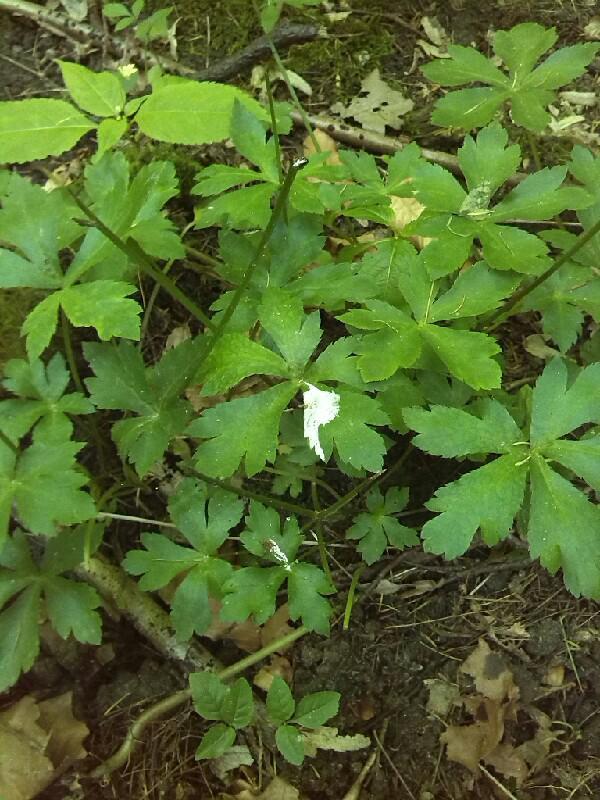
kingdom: Plantae
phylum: Tracheophyta
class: Magnoliopsida
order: Apiales
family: Apiaceae
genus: Sanicula
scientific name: Sanicula europaea
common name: Sanicle
